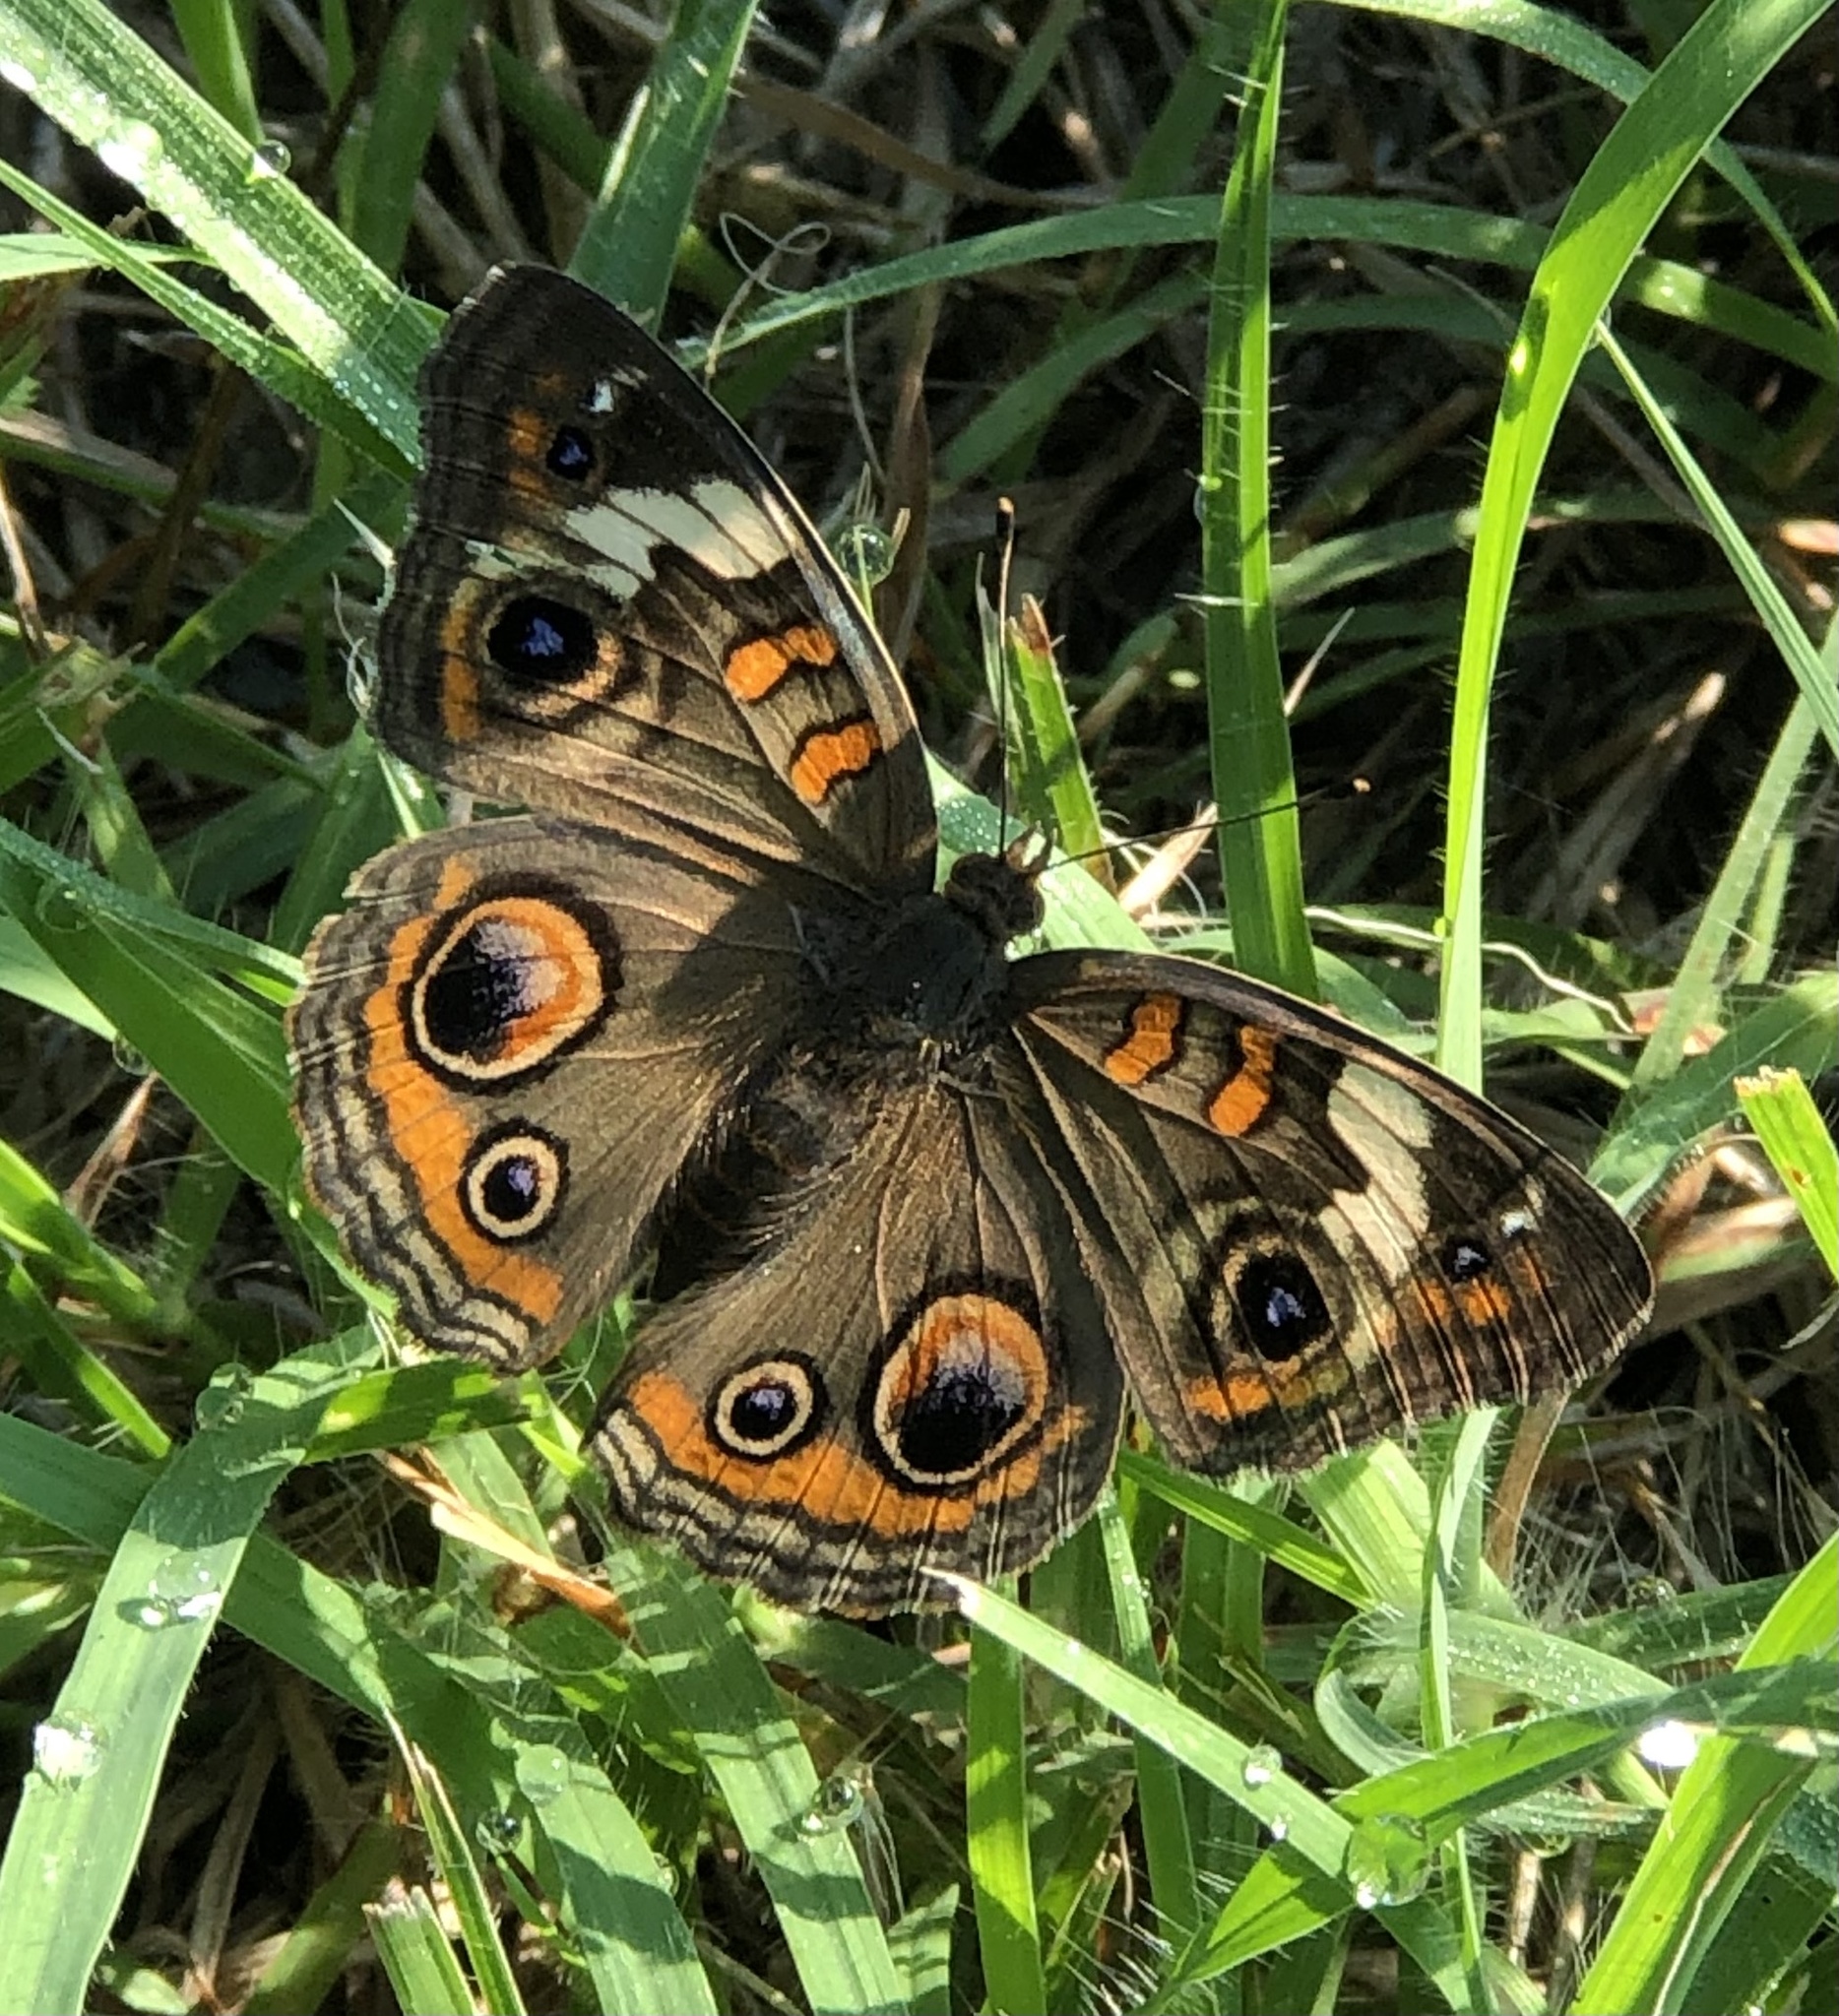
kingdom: Animalia
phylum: Arthropoda
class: Insecta
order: Lepidoptera
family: Nymphalidae
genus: Junonia
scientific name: Junonia coenia
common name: Common buckeye
